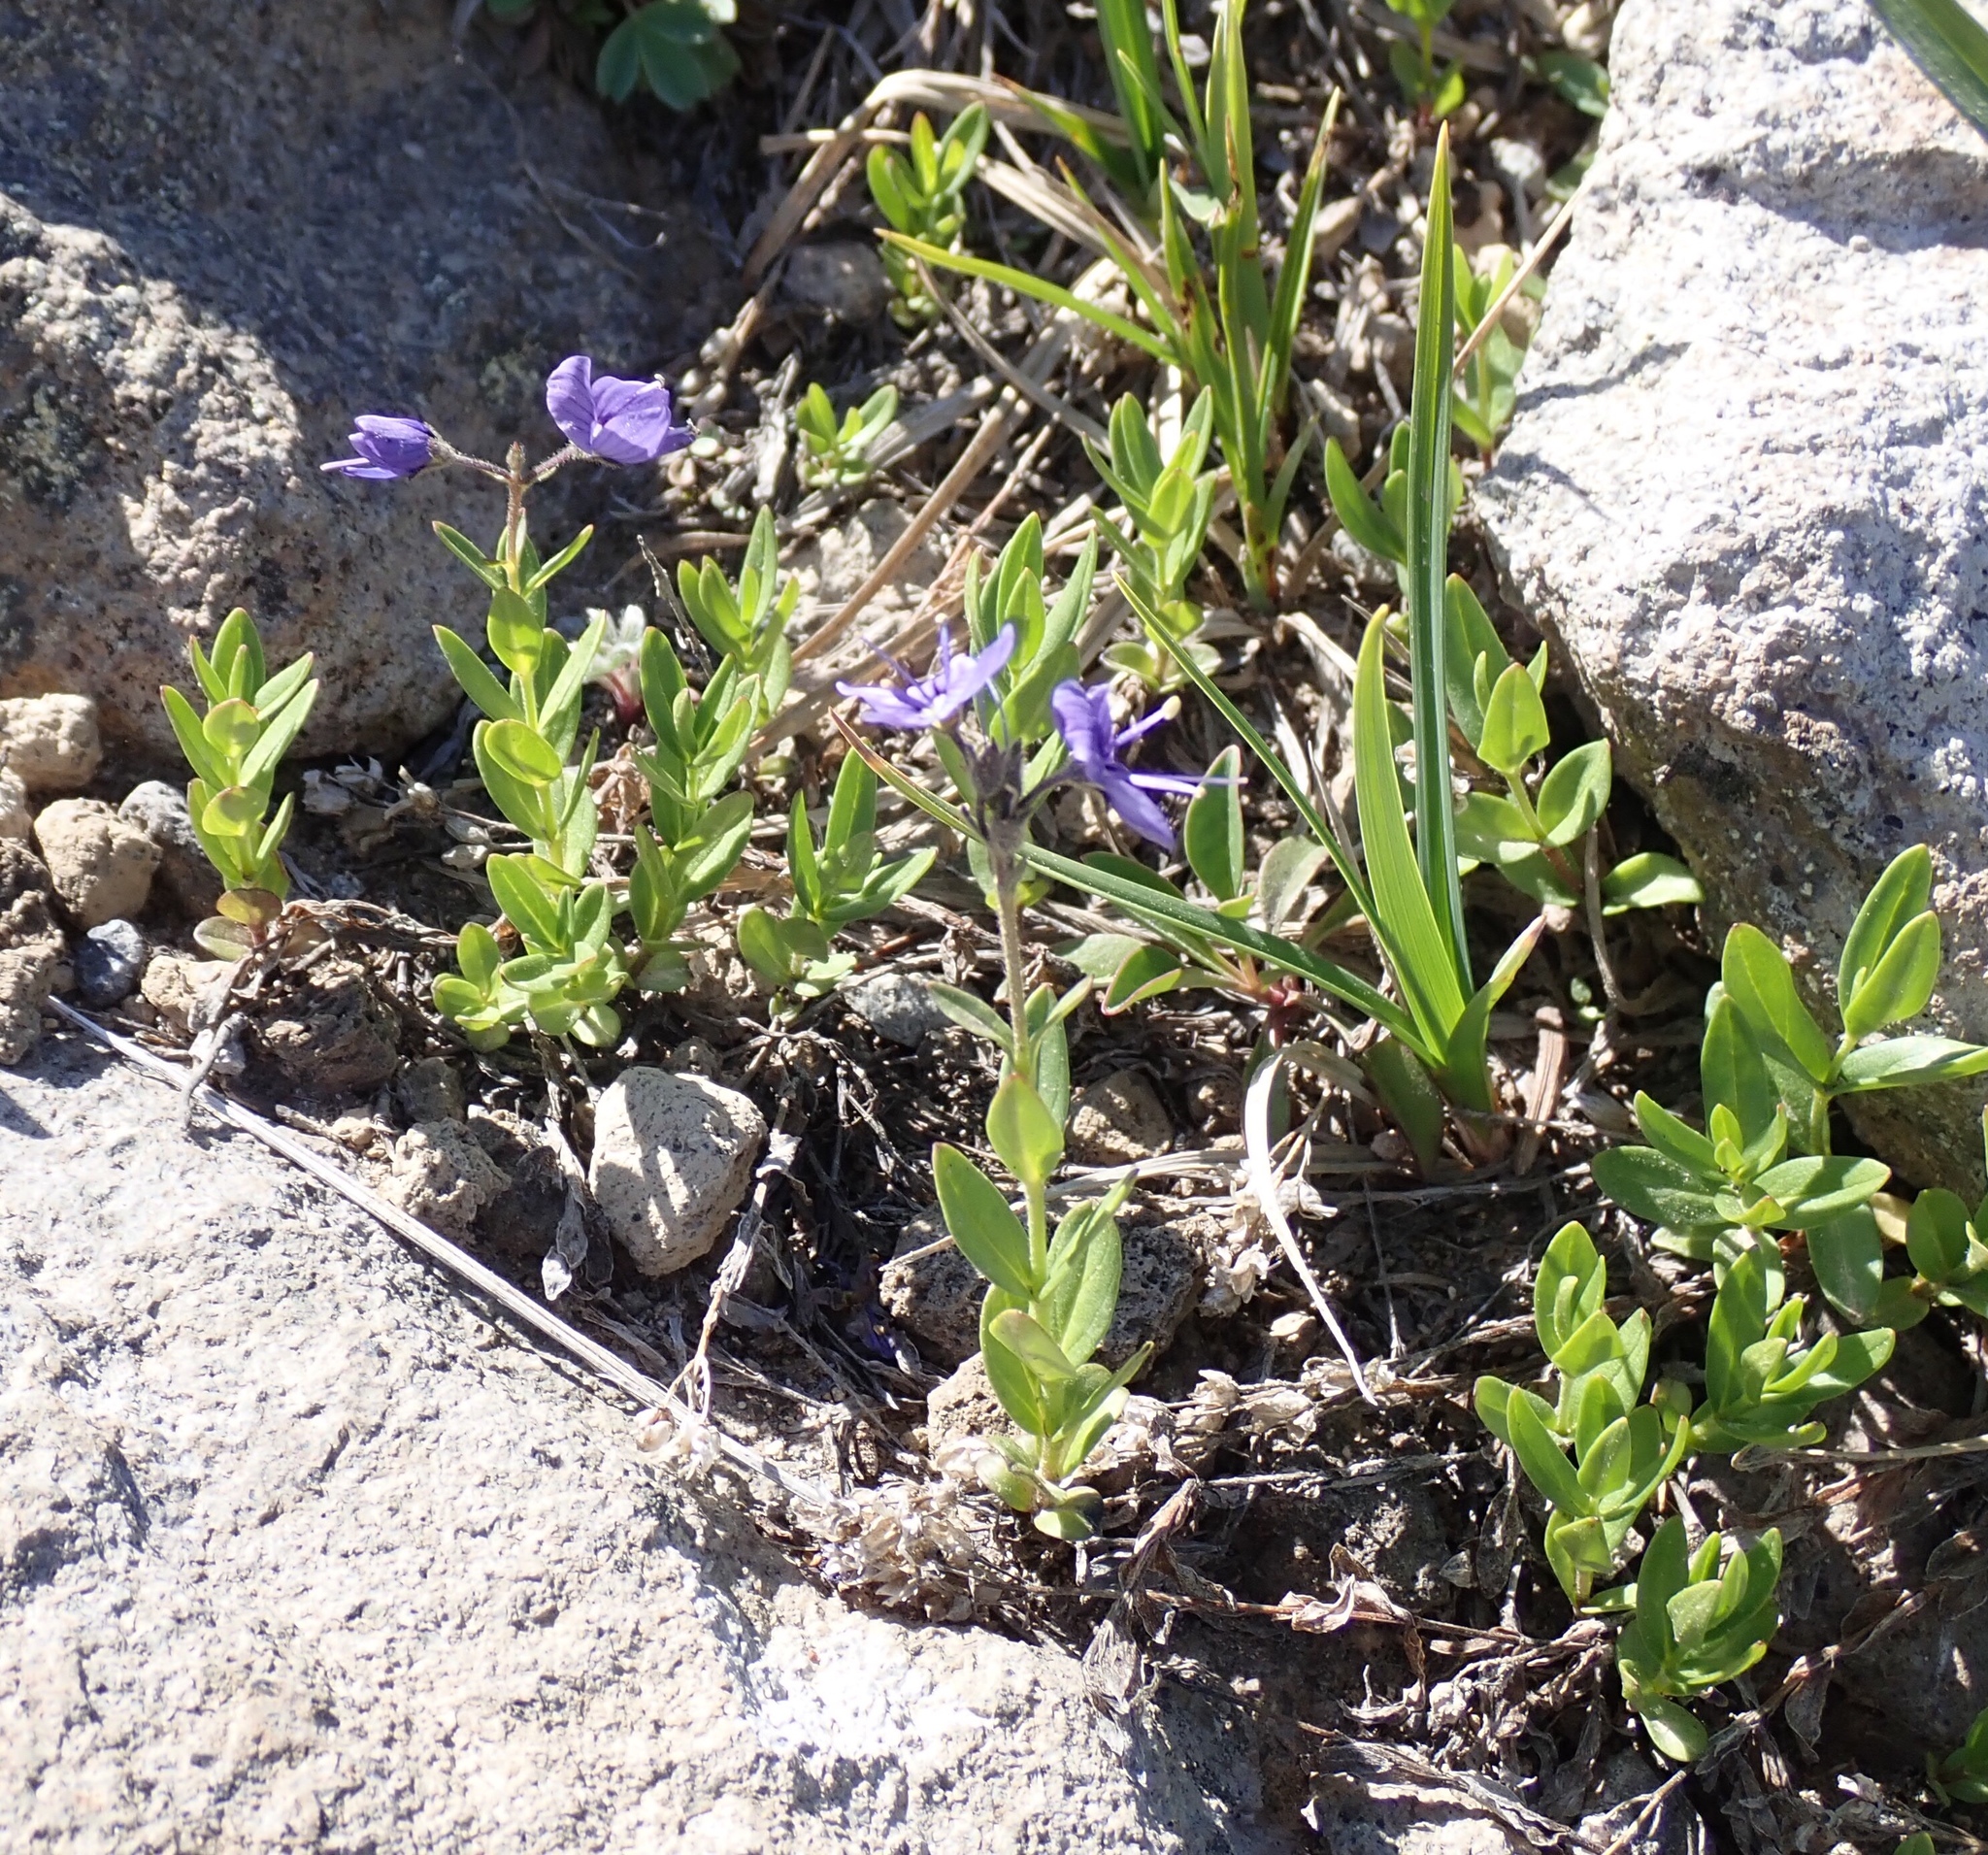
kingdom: Plantae
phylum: Tracheophyta
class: Magnoliopsida
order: Lamiales
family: Plantaginaceae
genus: Veronica
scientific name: Veronica cusickii
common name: Cusick's speedwell
